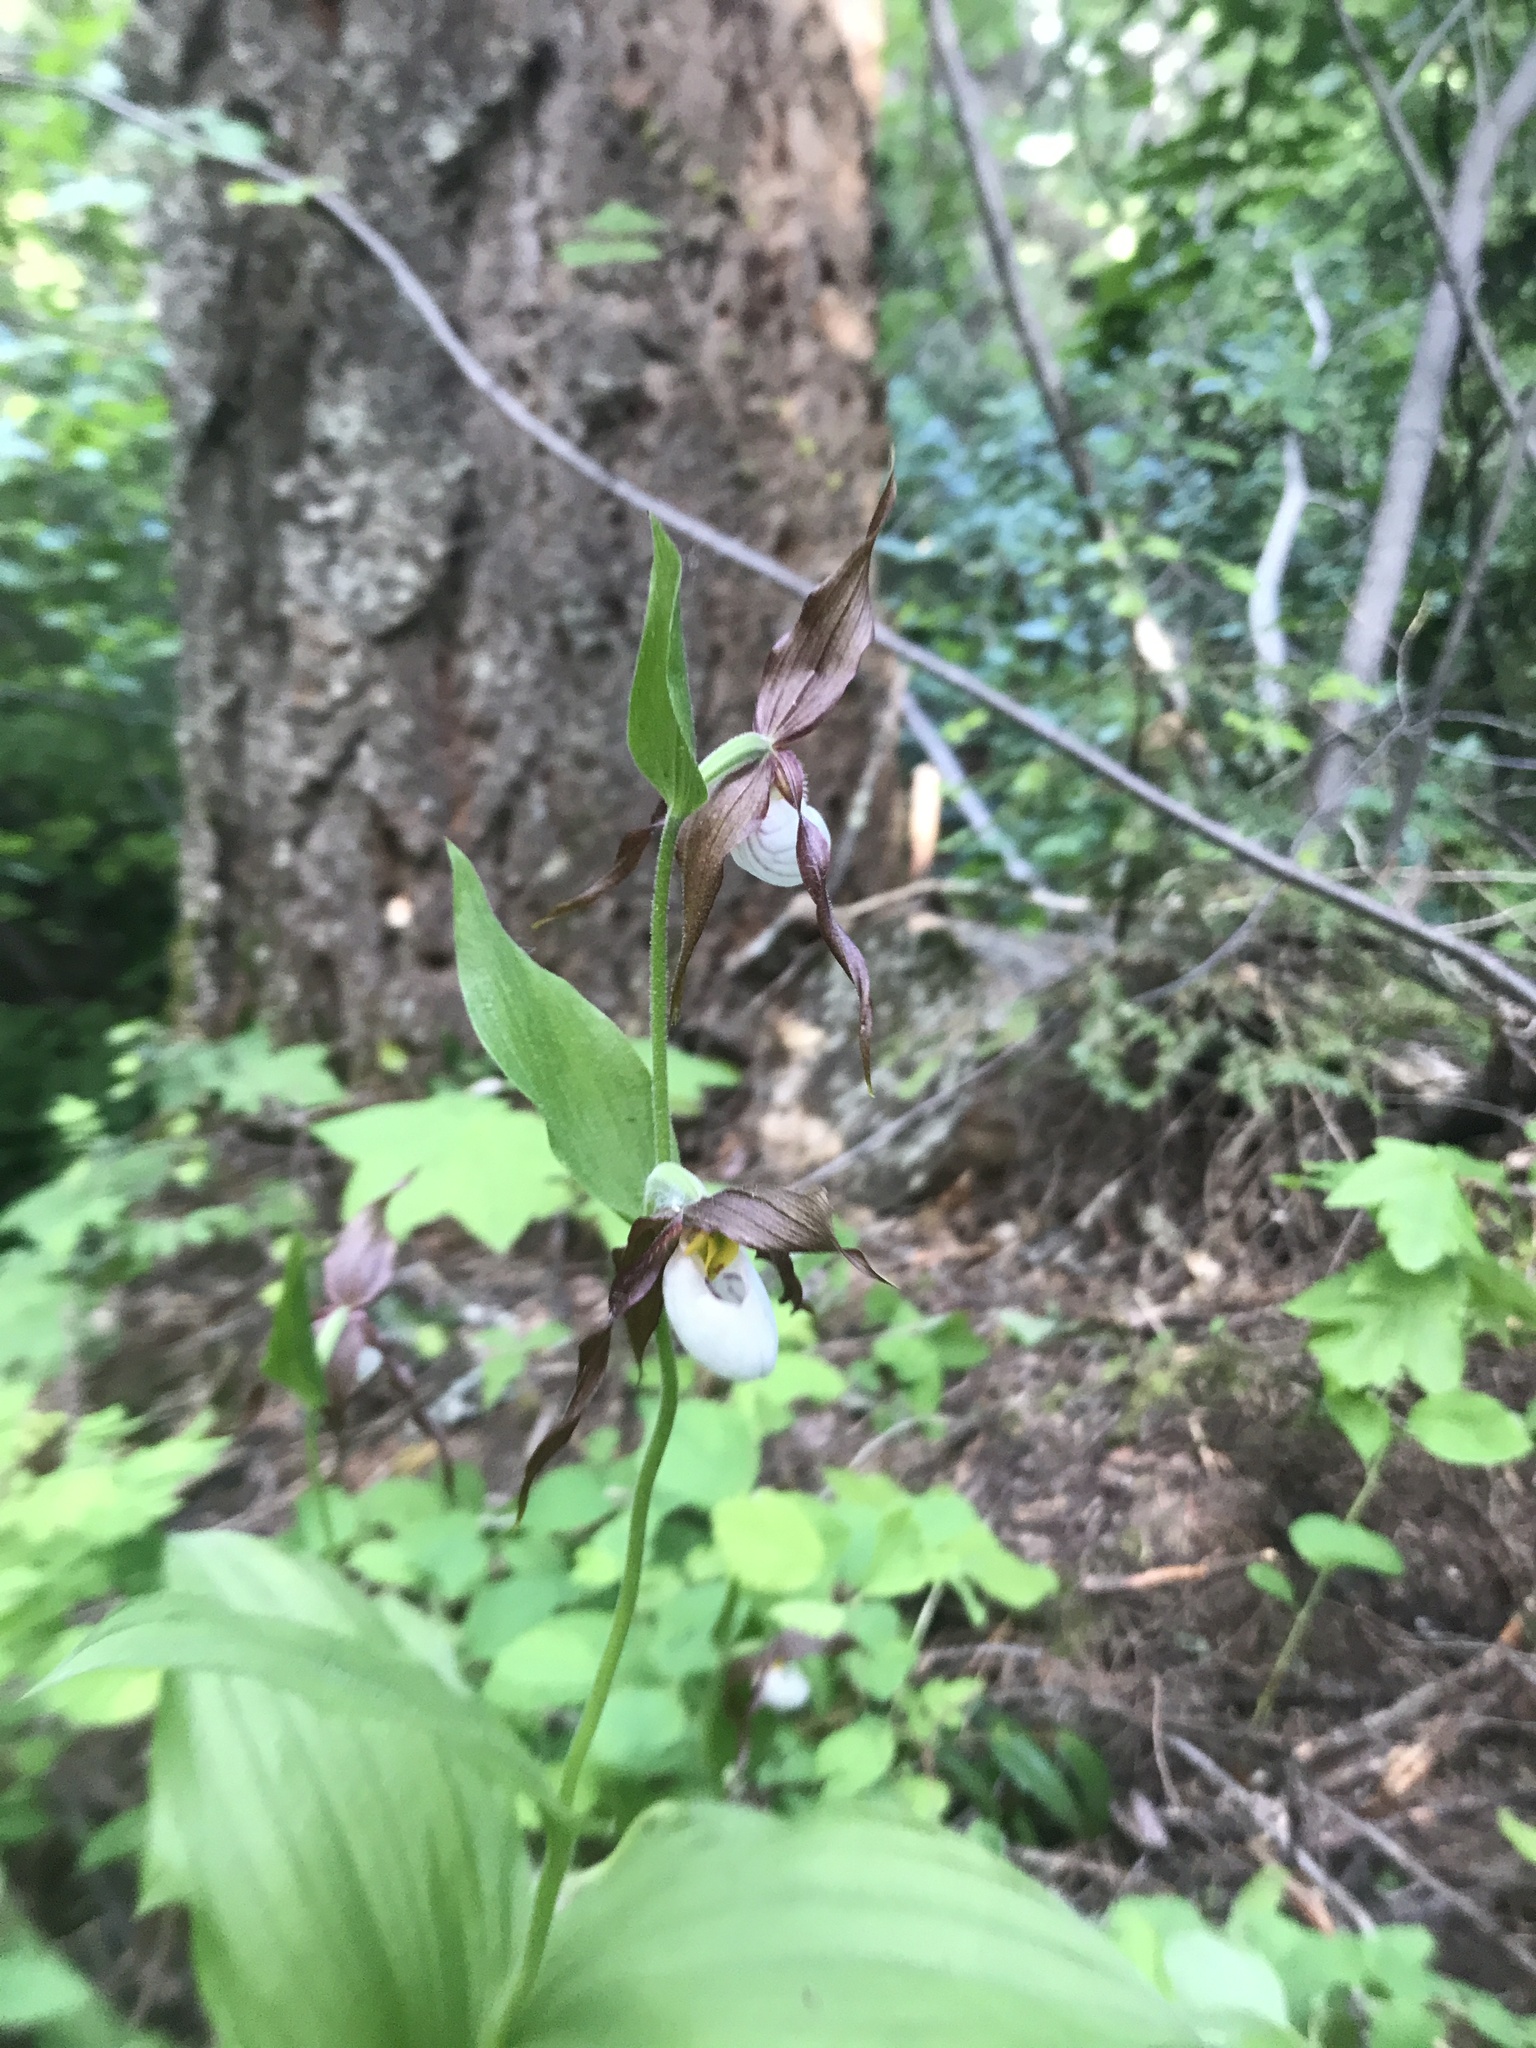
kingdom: Plantae
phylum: Tracheophyta
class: Liliopsida
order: Asparagales
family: Orchidaceae
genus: Cypripedium
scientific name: Cypripedium montanum
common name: Mountain lady's-slipper
